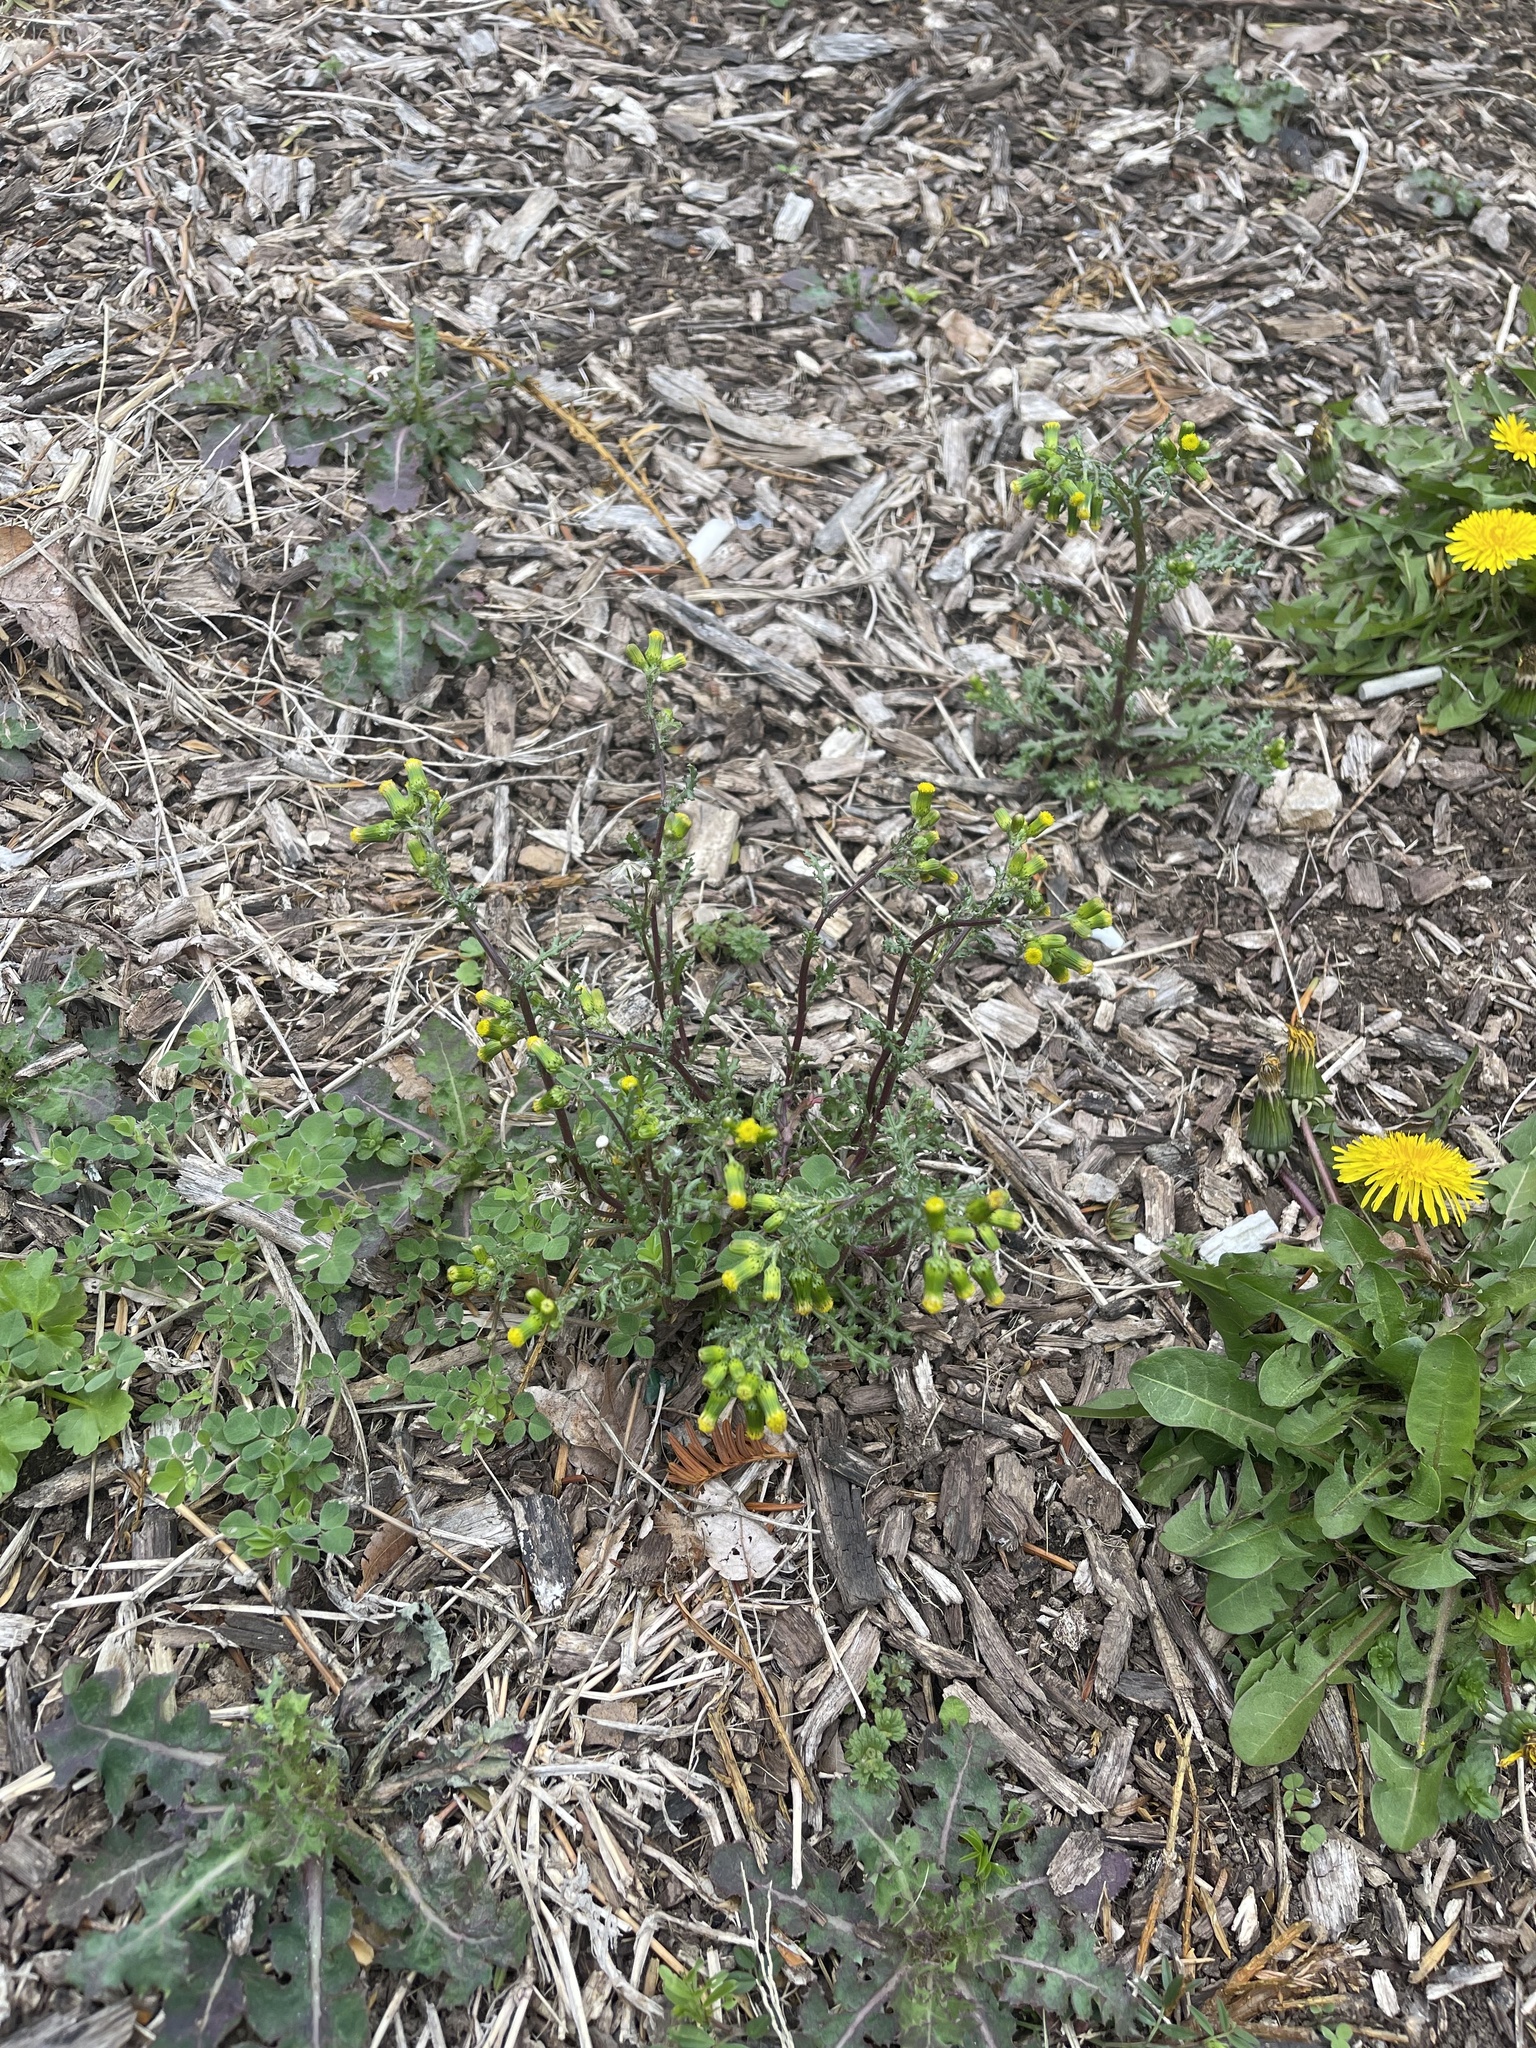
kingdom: Plantae
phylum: Tracheophyta
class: Magnoliopsida
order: Asterales
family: Asteraceae
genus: Senecio
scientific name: Senecio vulgaris
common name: Old-man-in-the-spring
